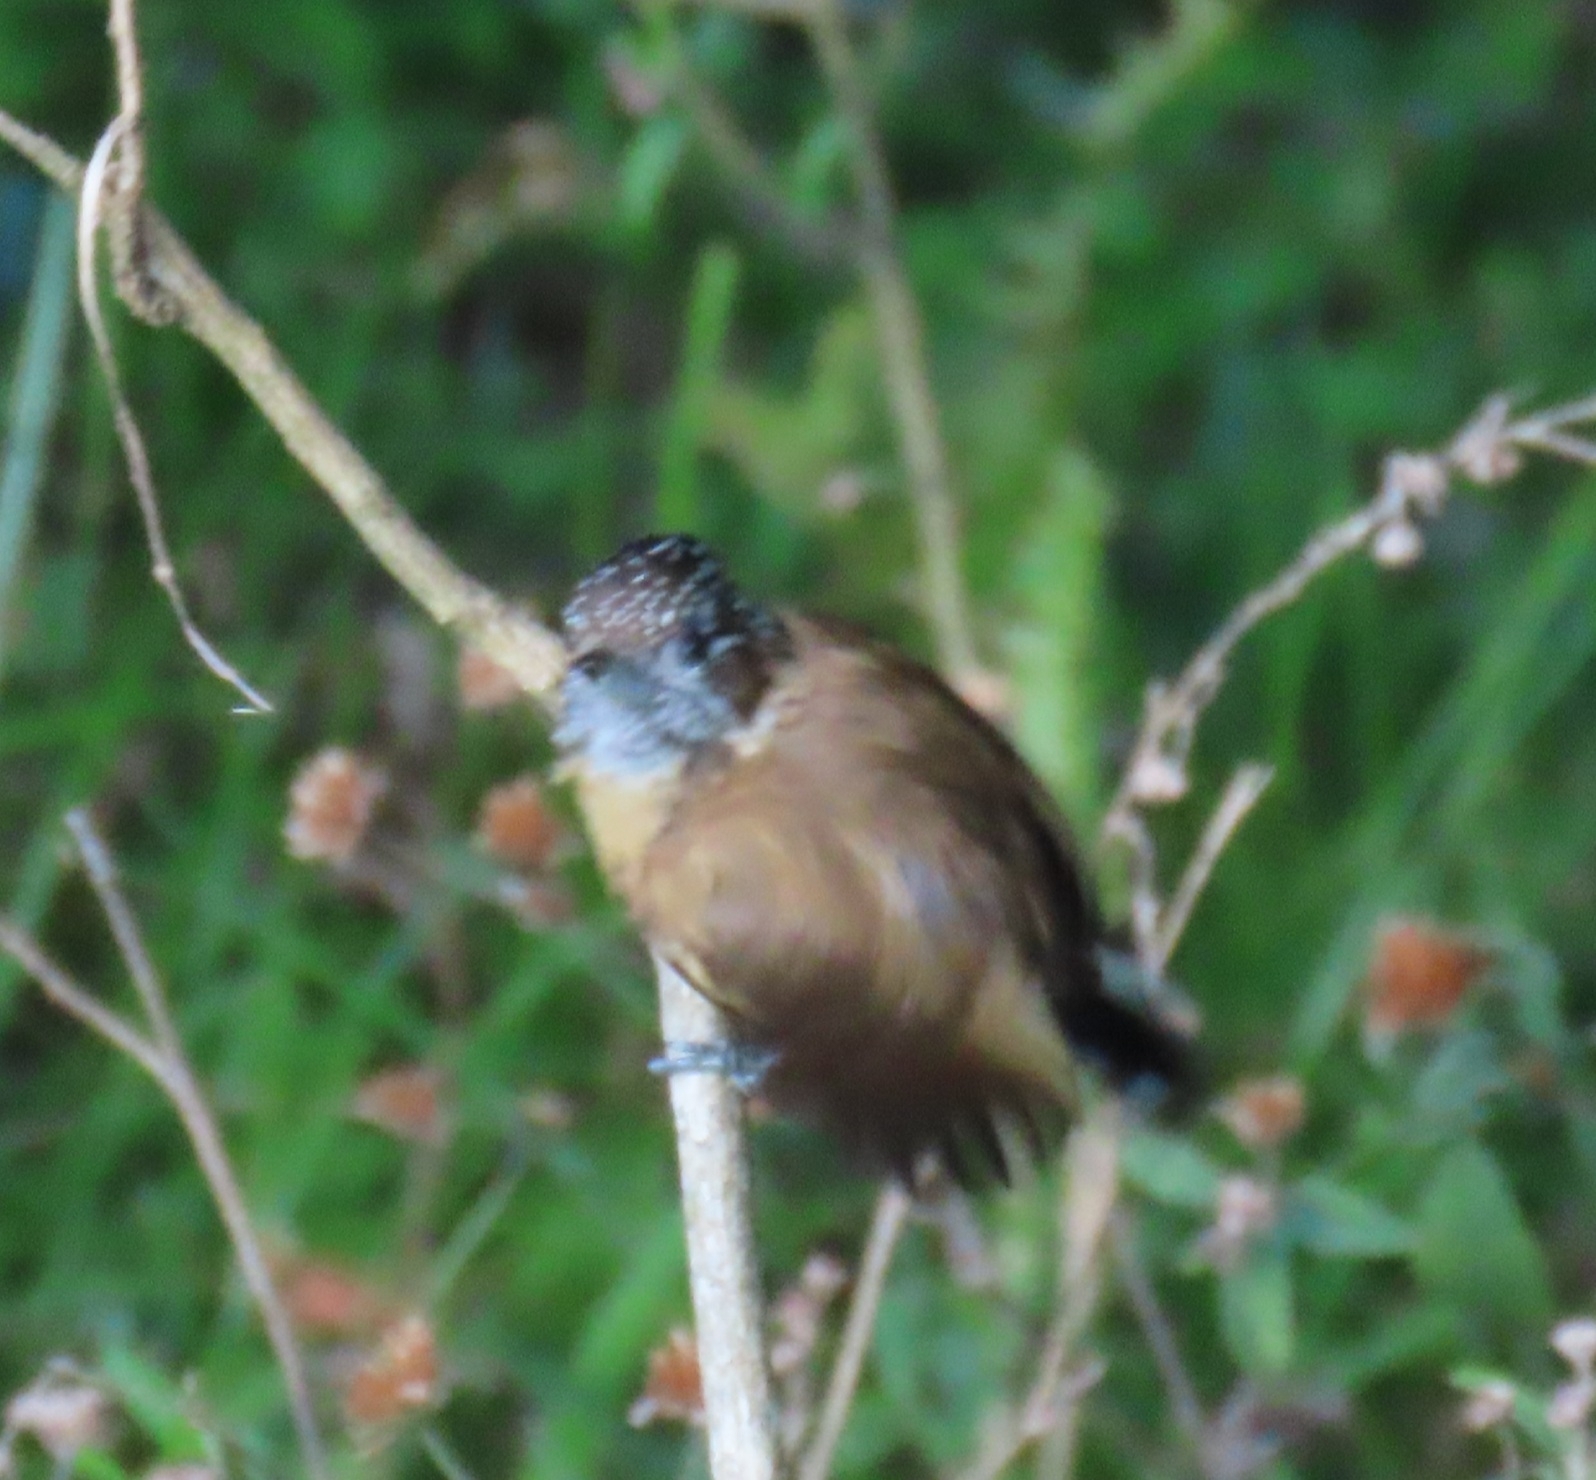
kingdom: Animalia
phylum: Chordata
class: Aves
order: Piciformes
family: Picidae
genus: Picumnus
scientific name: Picumnus nebulosus
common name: Mottled piculet
